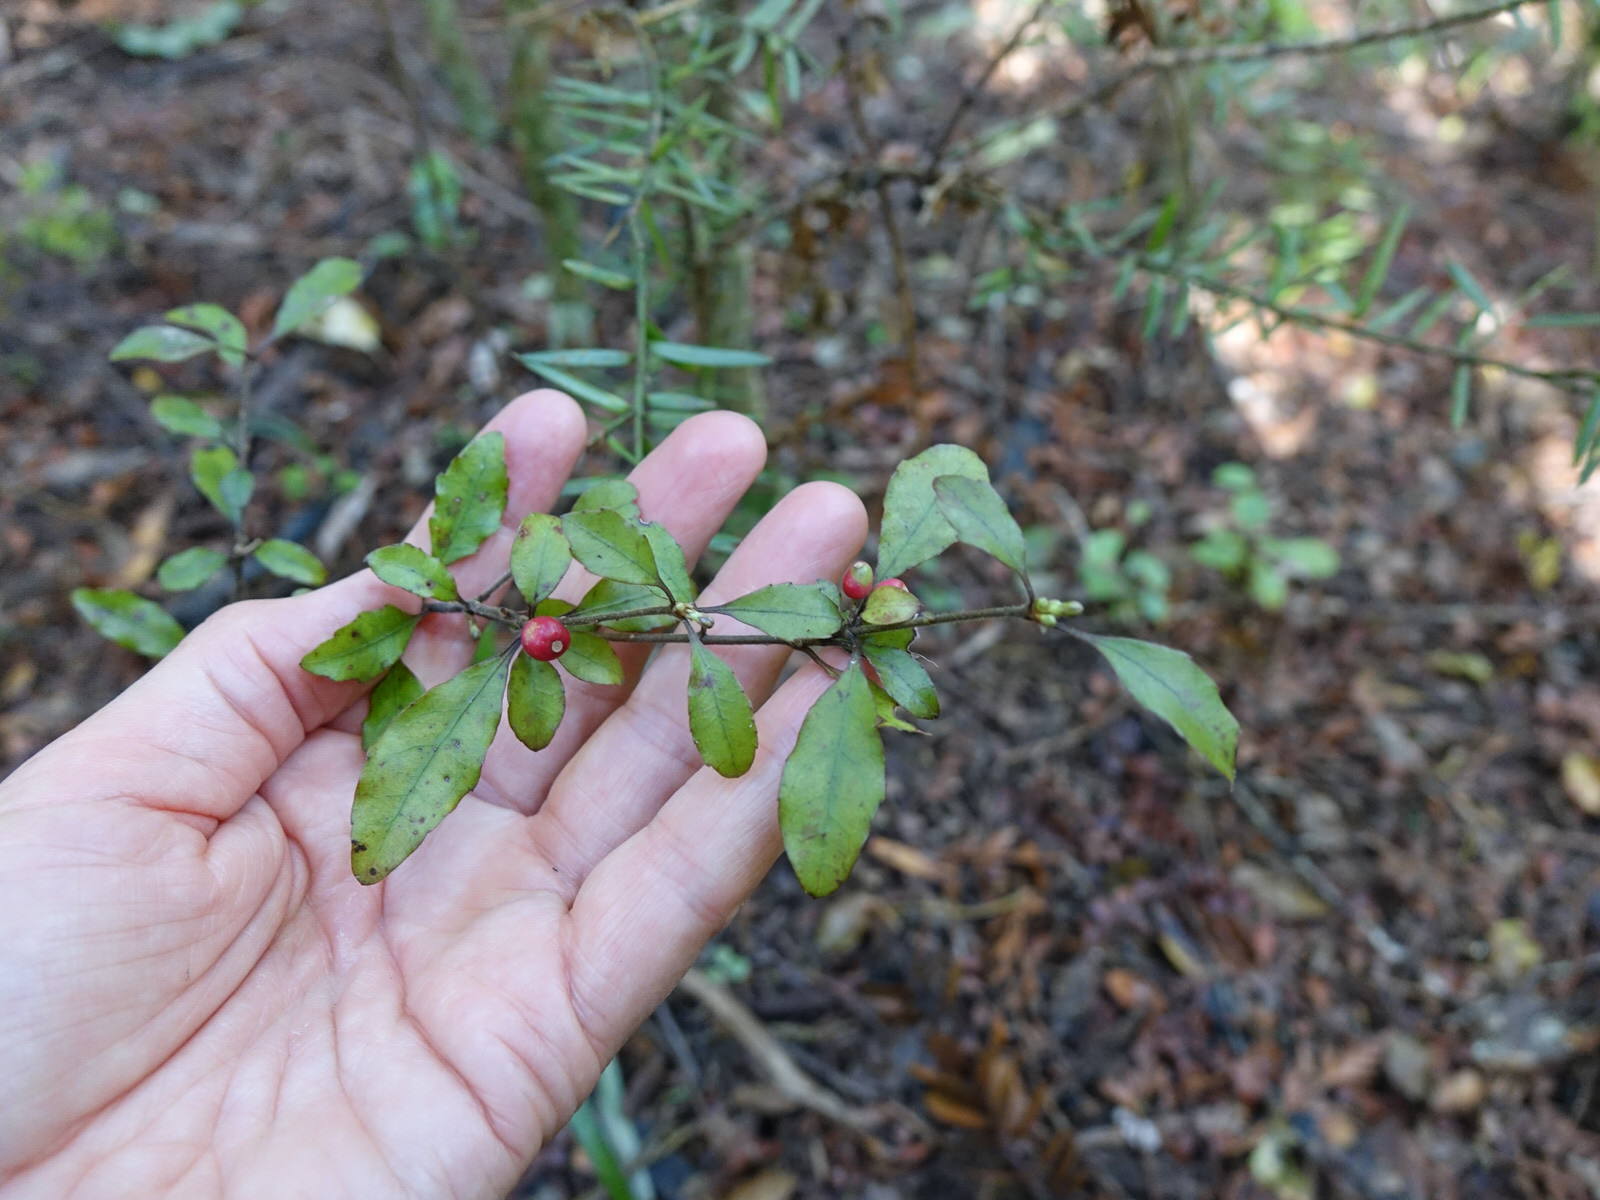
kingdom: Plantae
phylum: Tracheophyta
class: Magnoliopsida
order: Asterales
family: Alseuosmiaceae
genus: Alseuosmia
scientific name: Alseuosmia banksii
